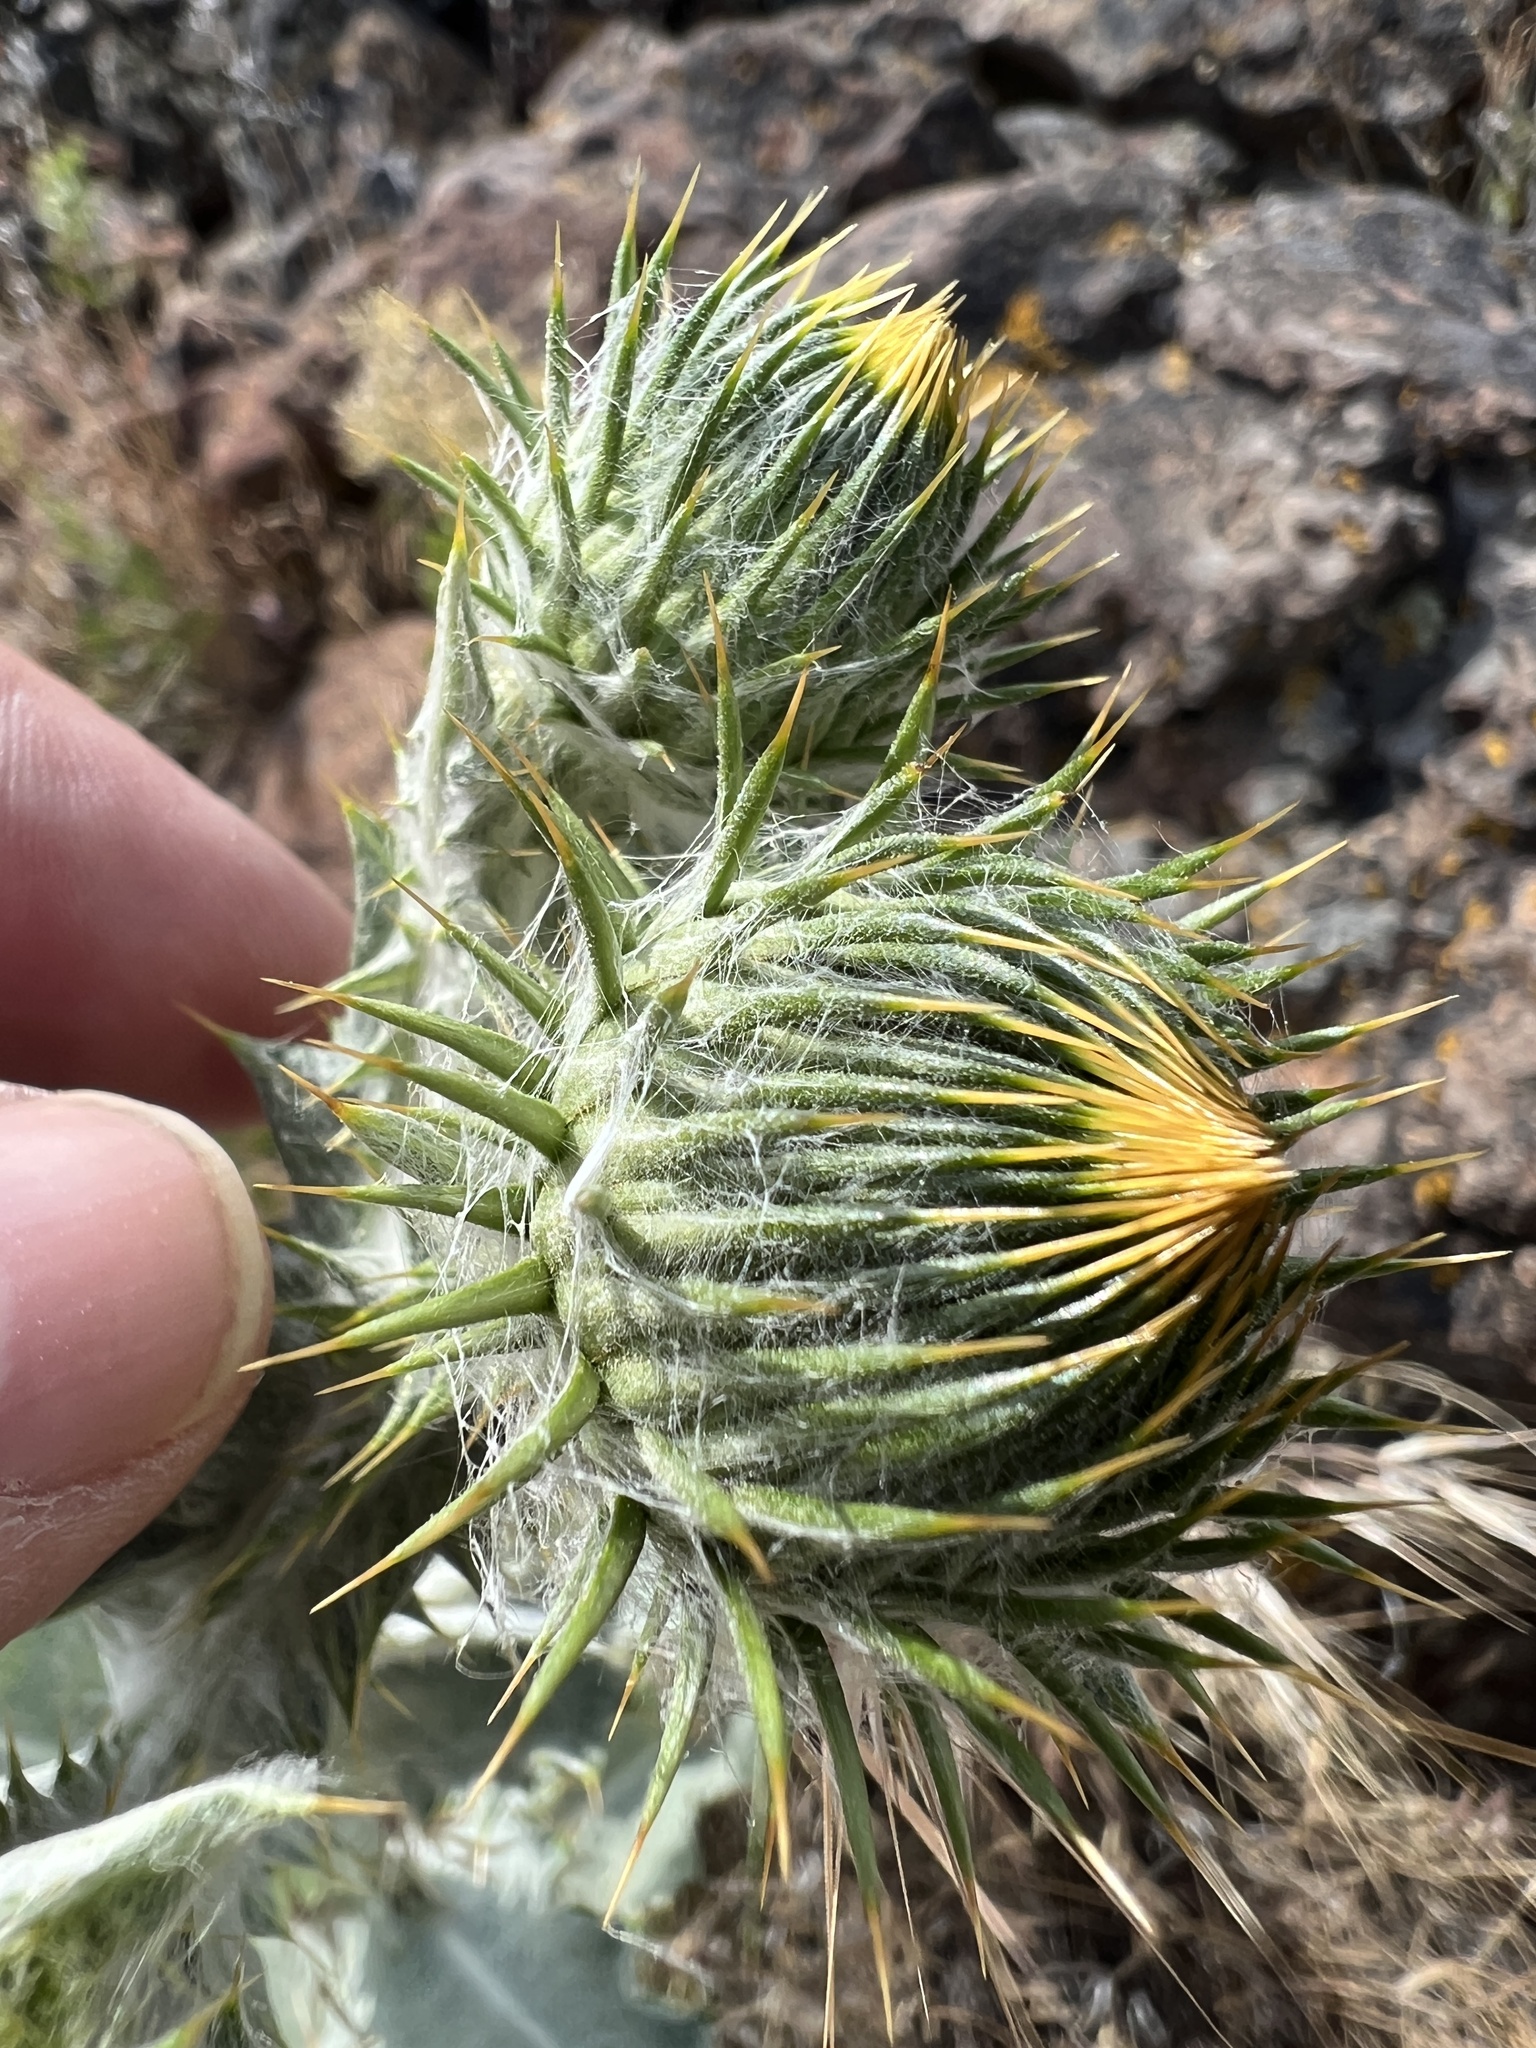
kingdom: Plantae
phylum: Tracheophyta
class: Magnoliopsida
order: Asterales
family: Asteraceae
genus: Onopordum
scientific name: Onopordum acanthium
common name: Scotch thistle
